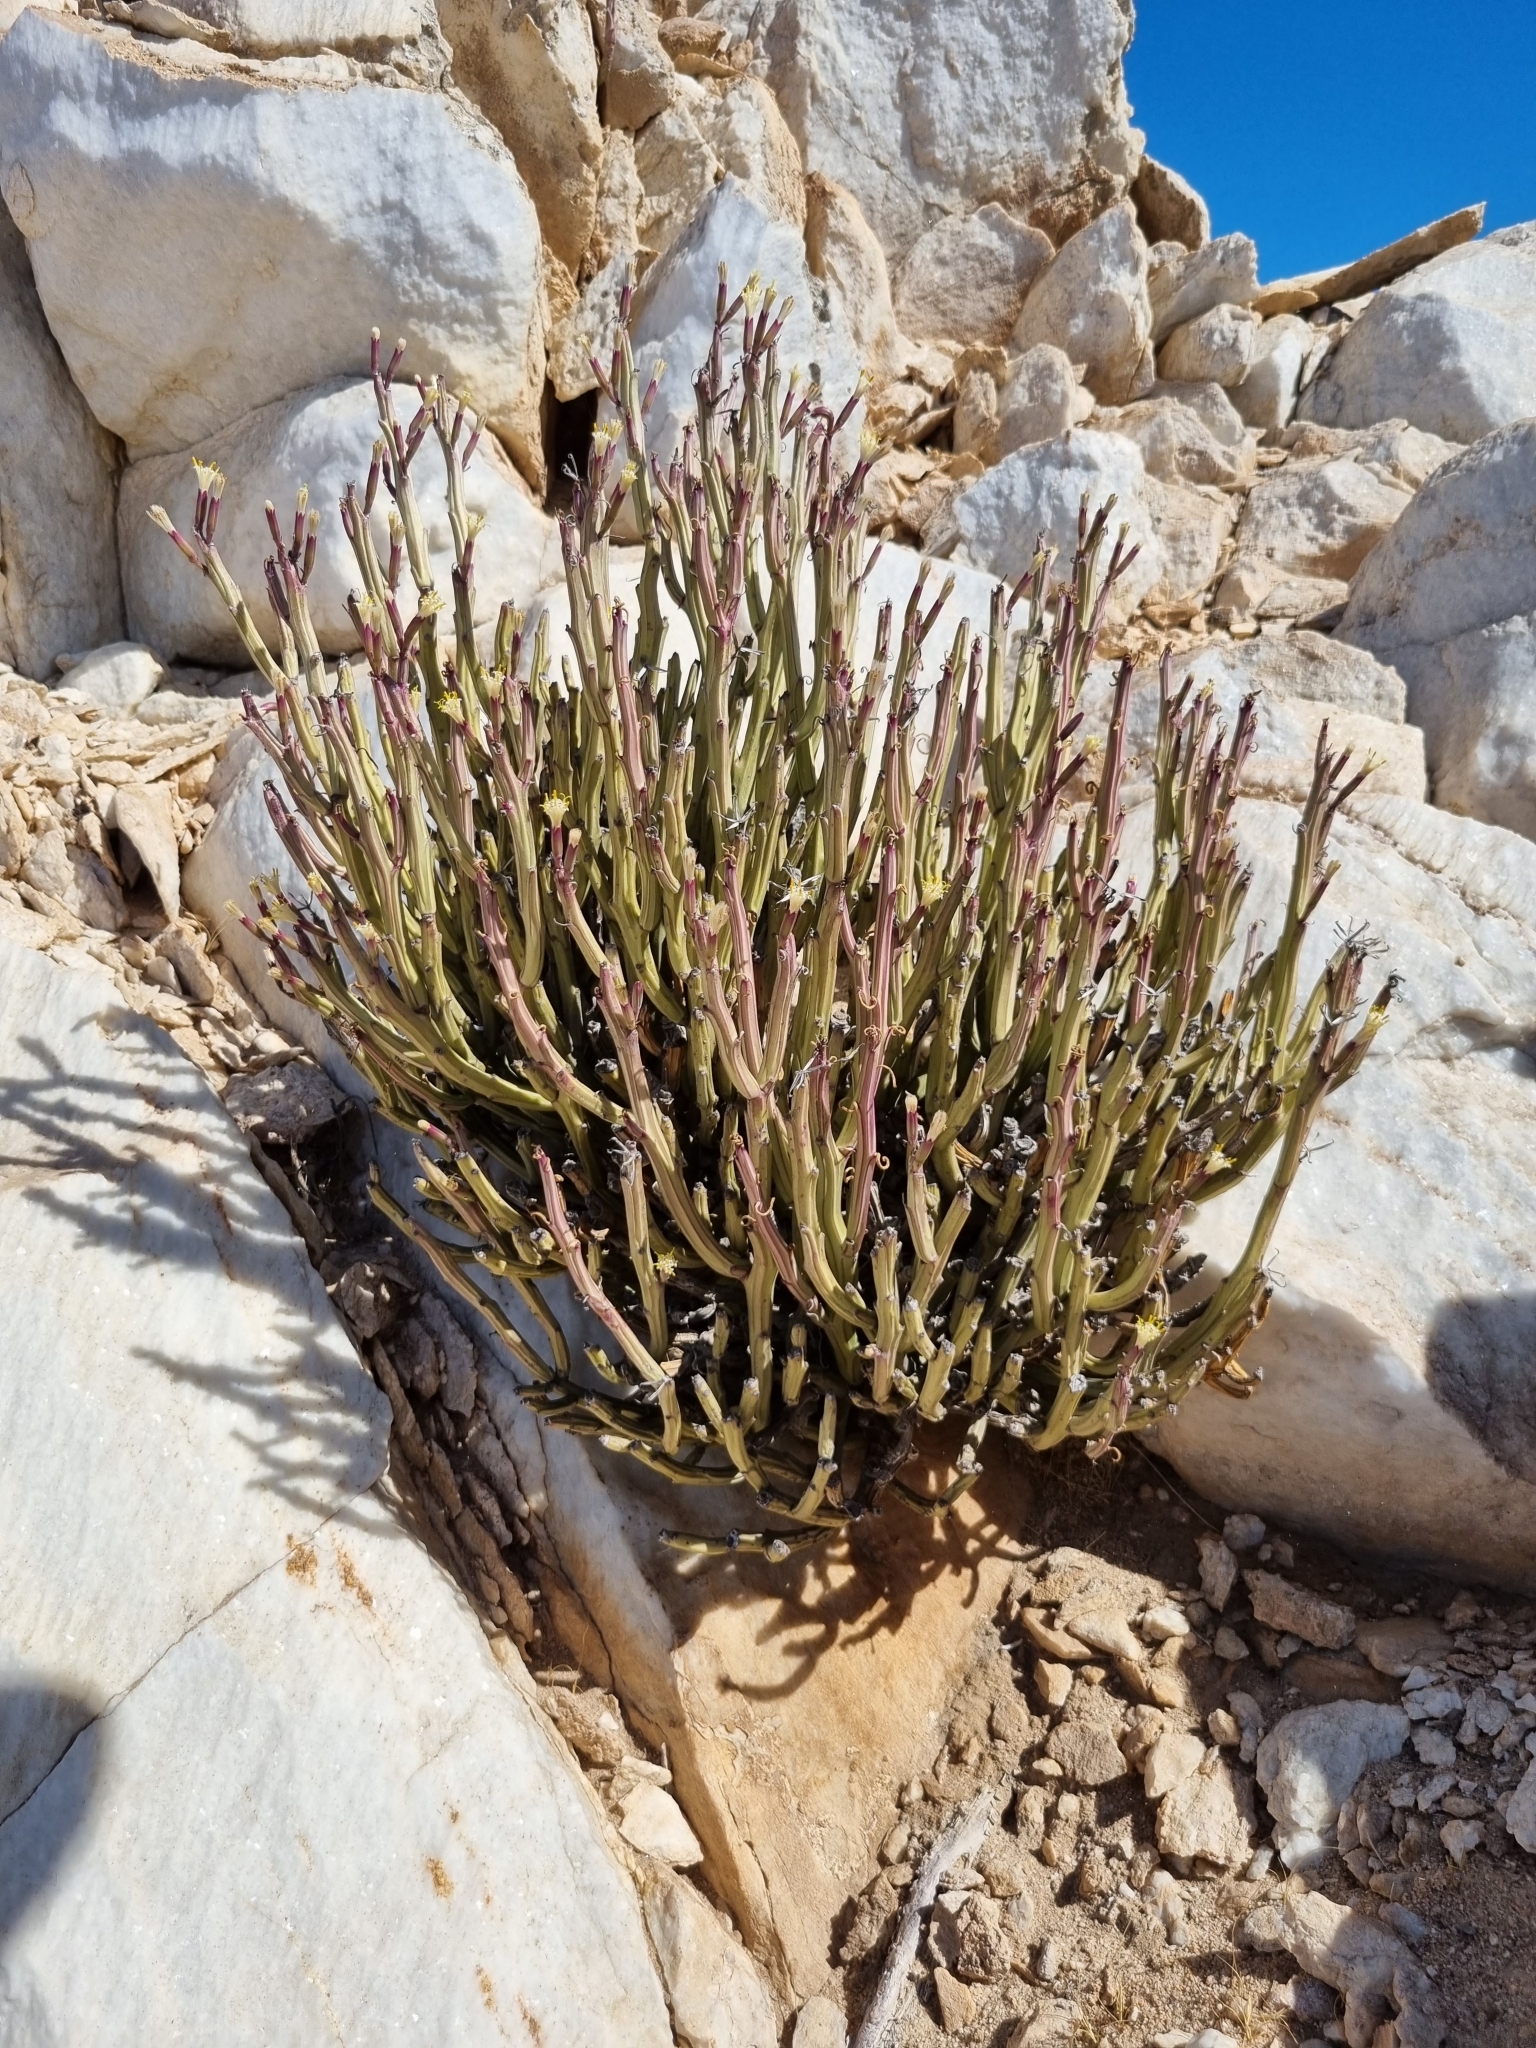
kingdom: Plantae
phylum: Tracheophyta
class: Magnoliopsida
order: Asterales
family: Asteraceae
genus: Curio
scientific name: Curio avasimontanus
